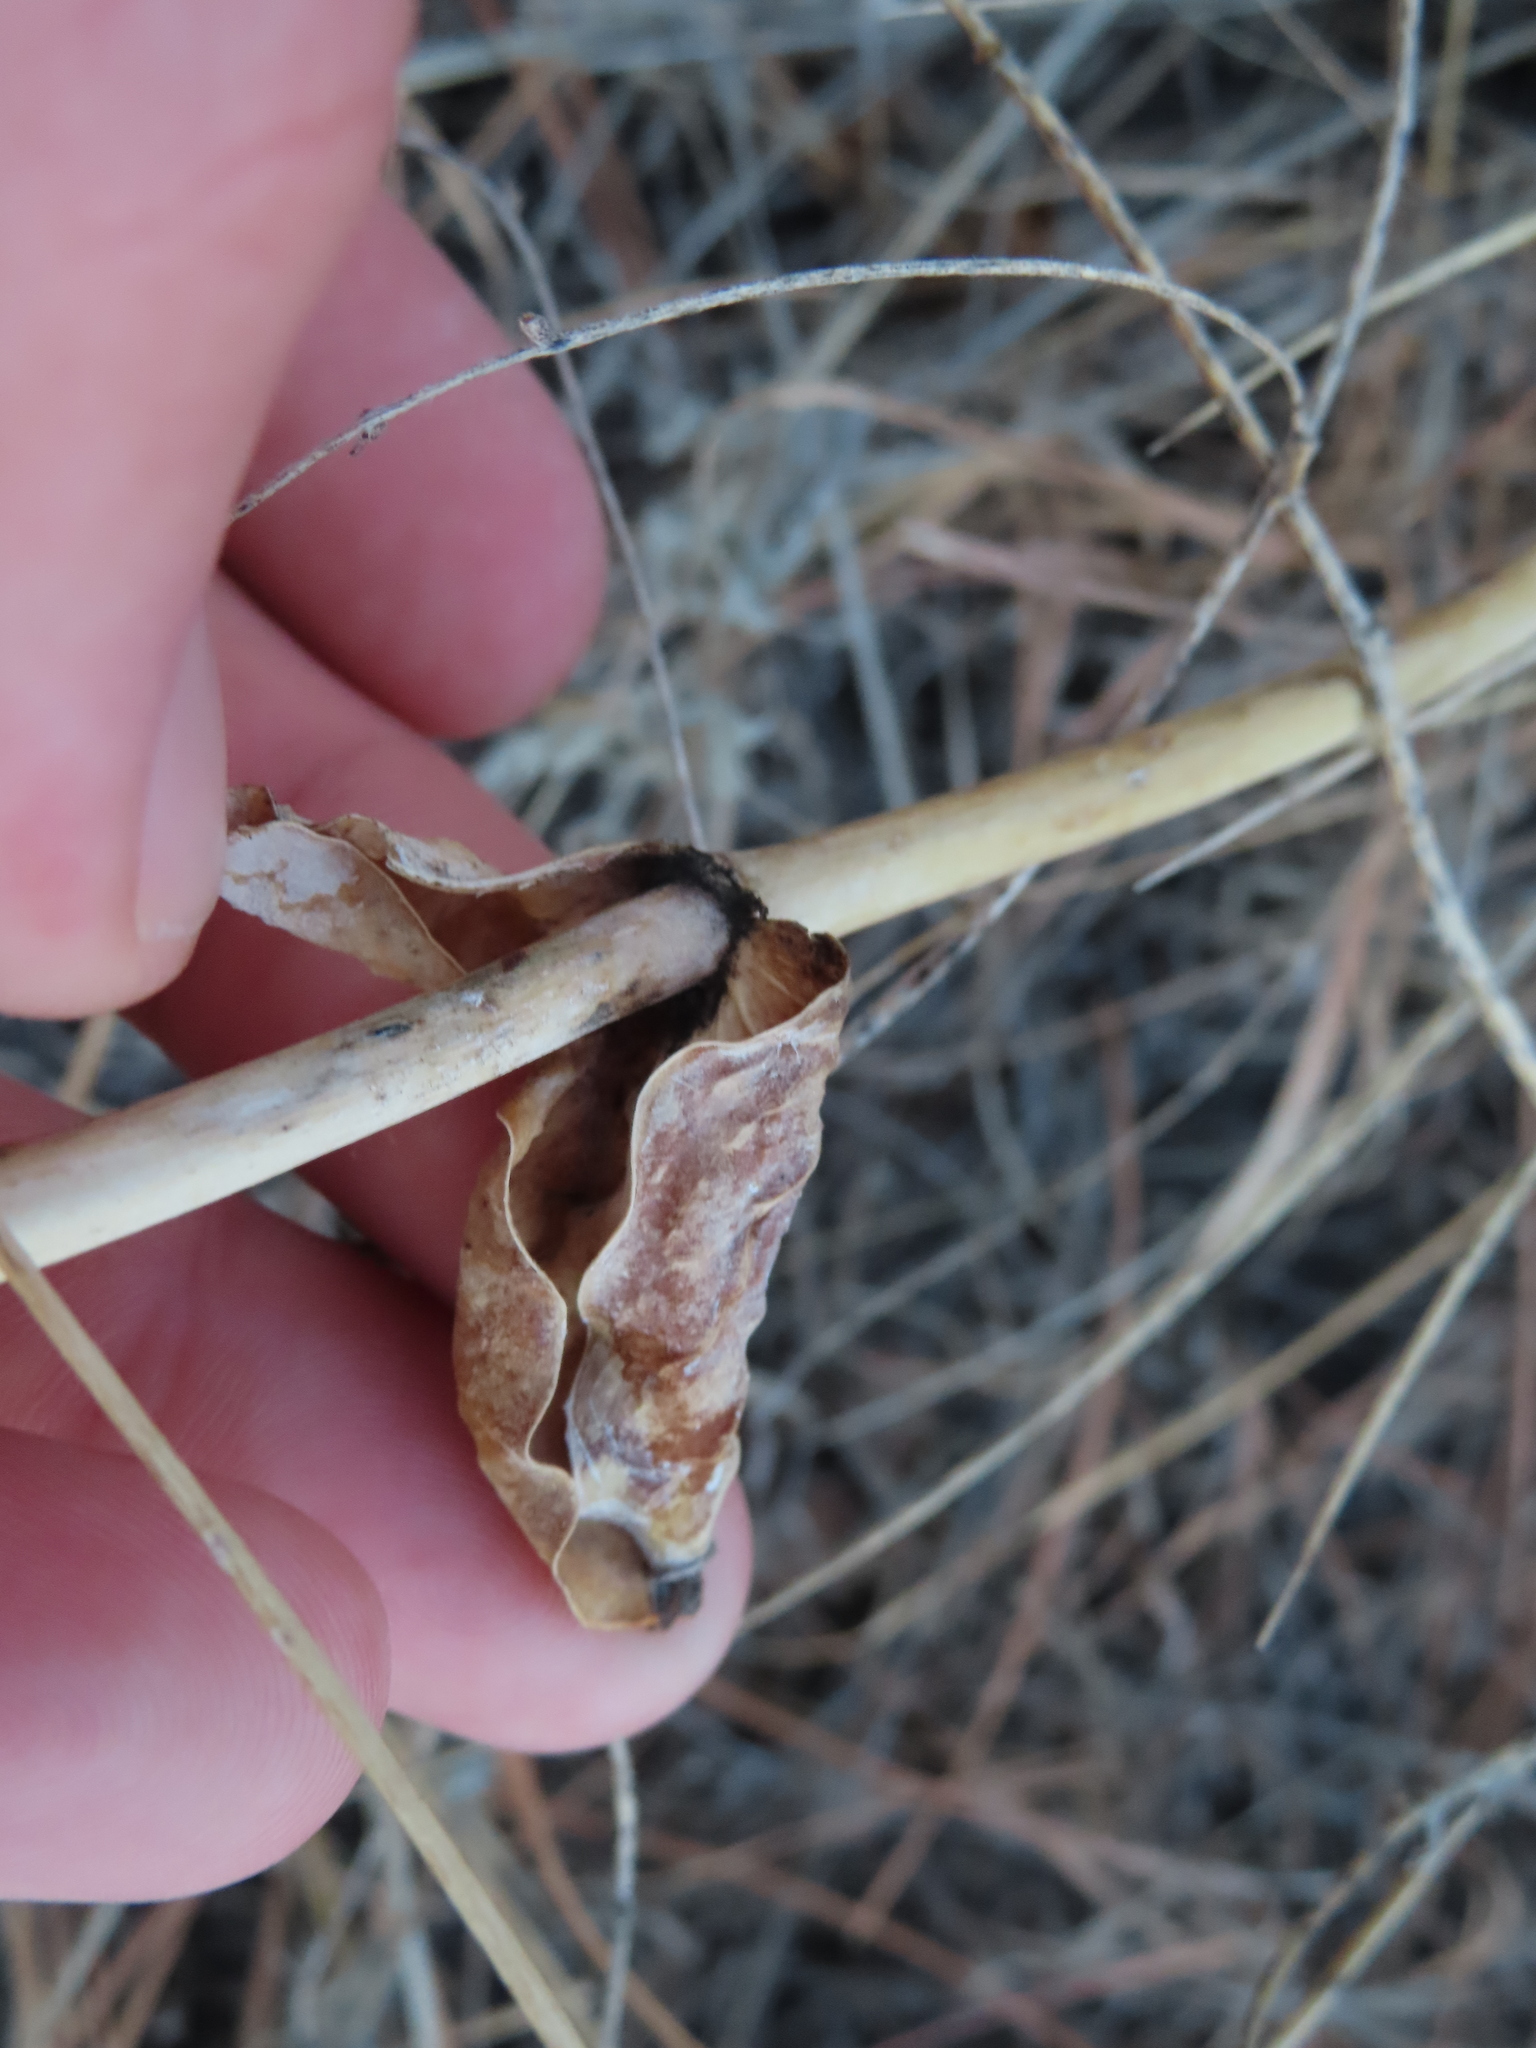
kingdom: Plantae
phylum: Tracheophyta
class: Magnoliopsida
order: Lamiales
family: Plantaginaceae
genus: Penstemon
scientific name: Penstemon
